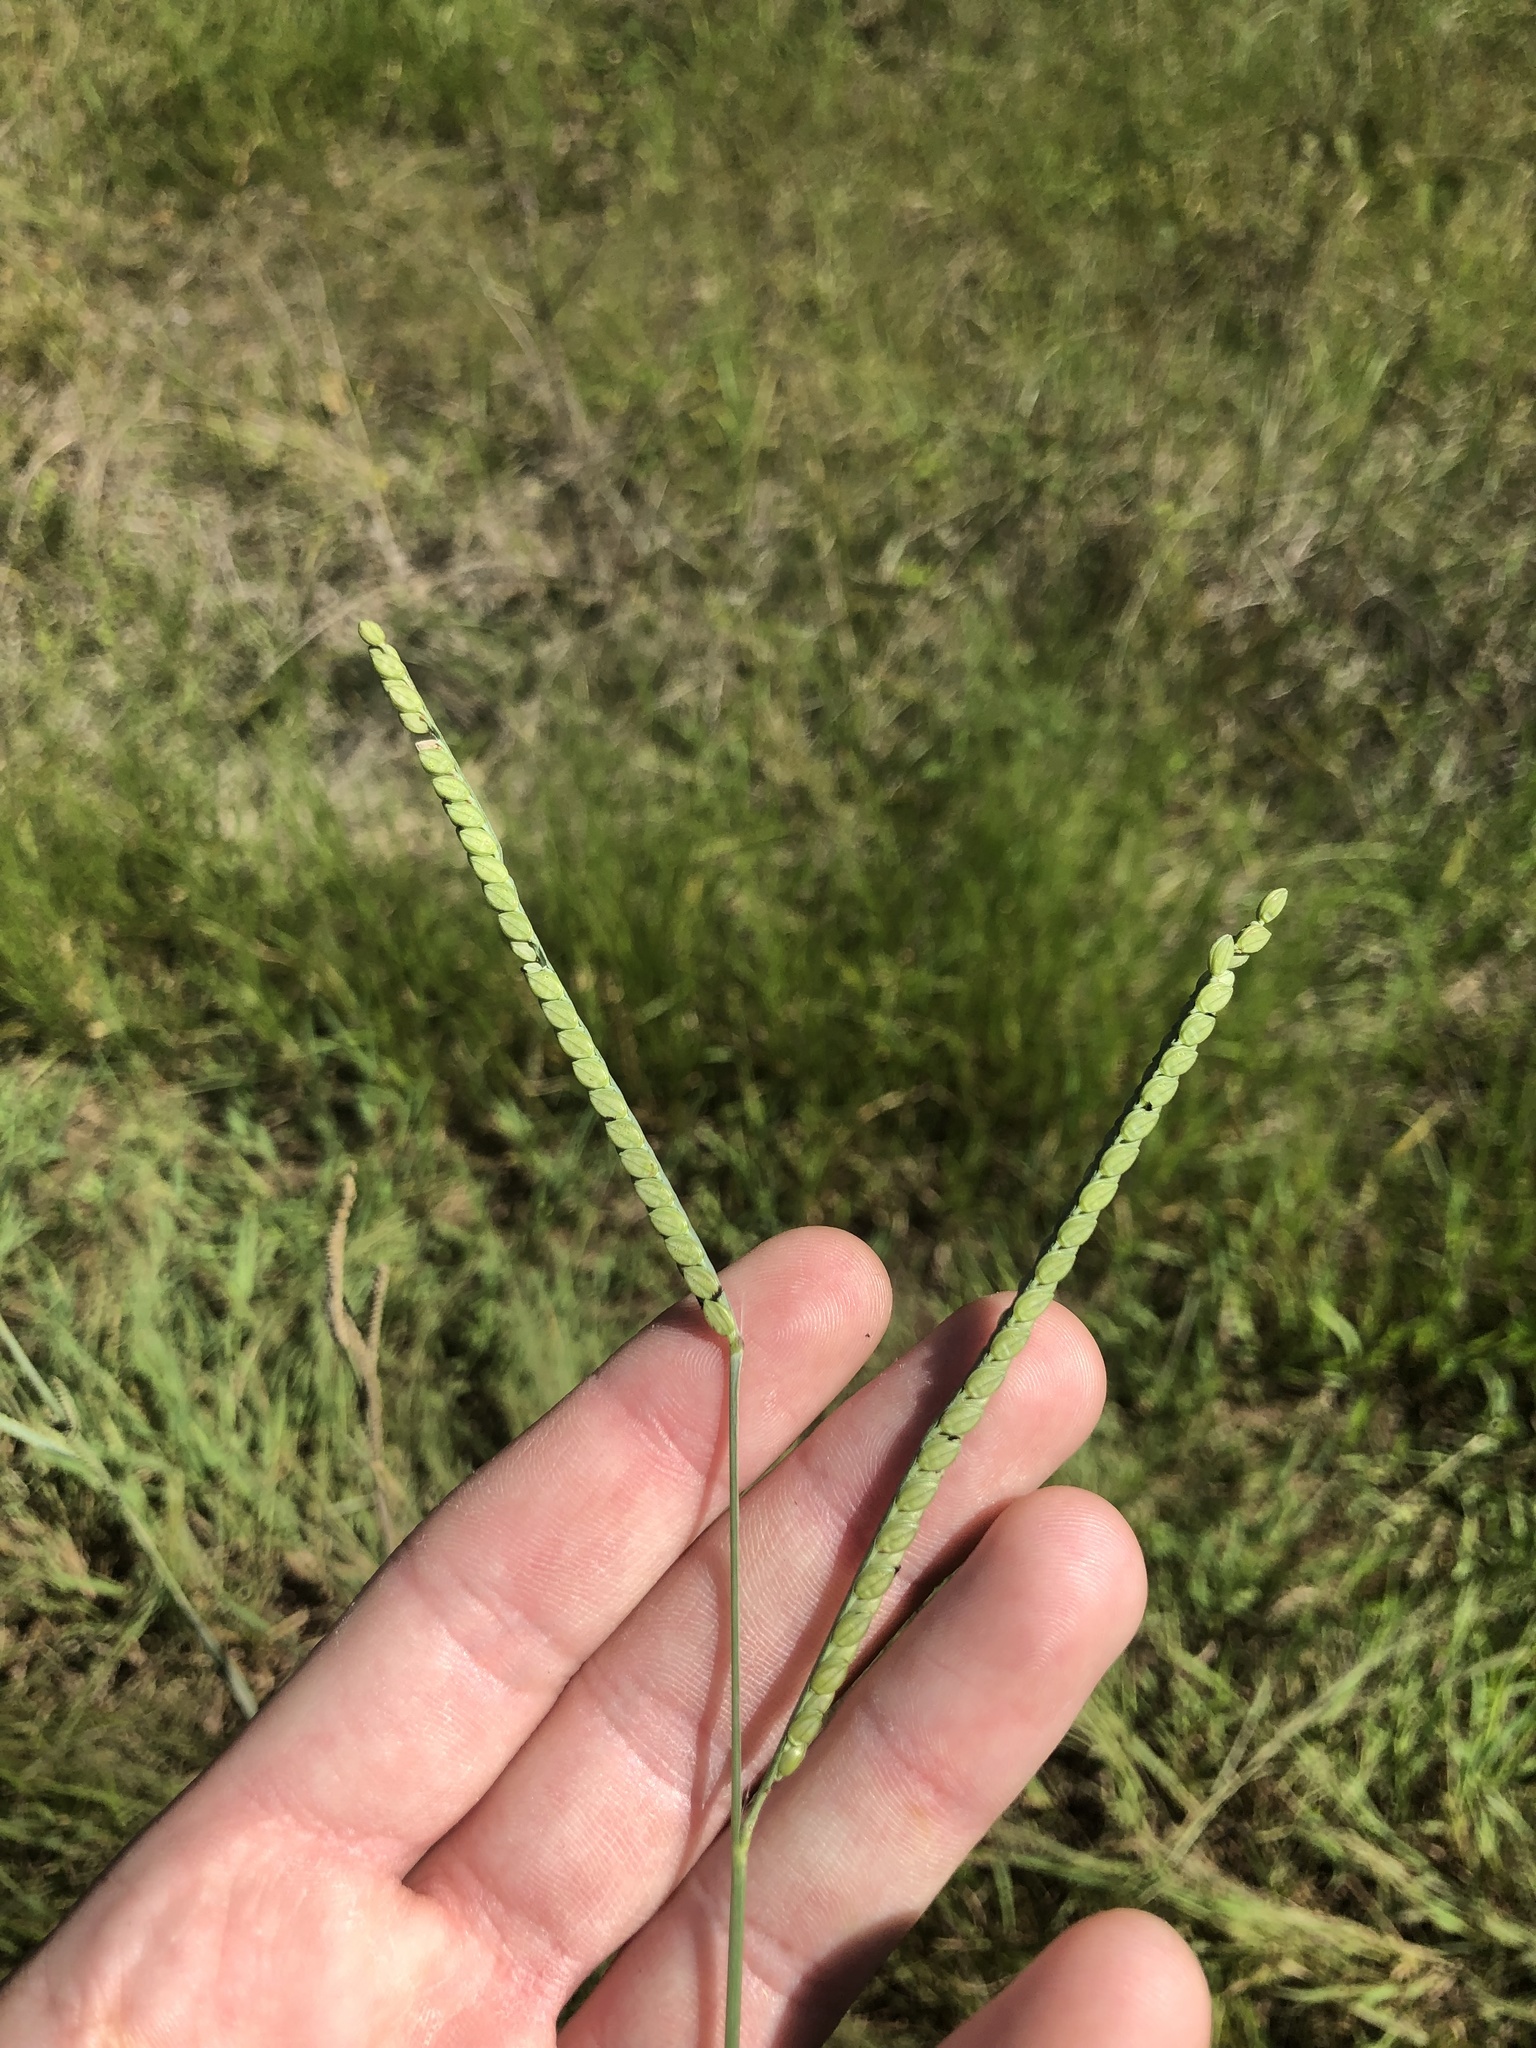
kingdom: Plantae
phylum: Tracheophyta
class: Liliopsida
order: Poales
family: Poaceae
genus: Paspalum
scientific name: Paspalum floridanum
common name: Florida paspalum
